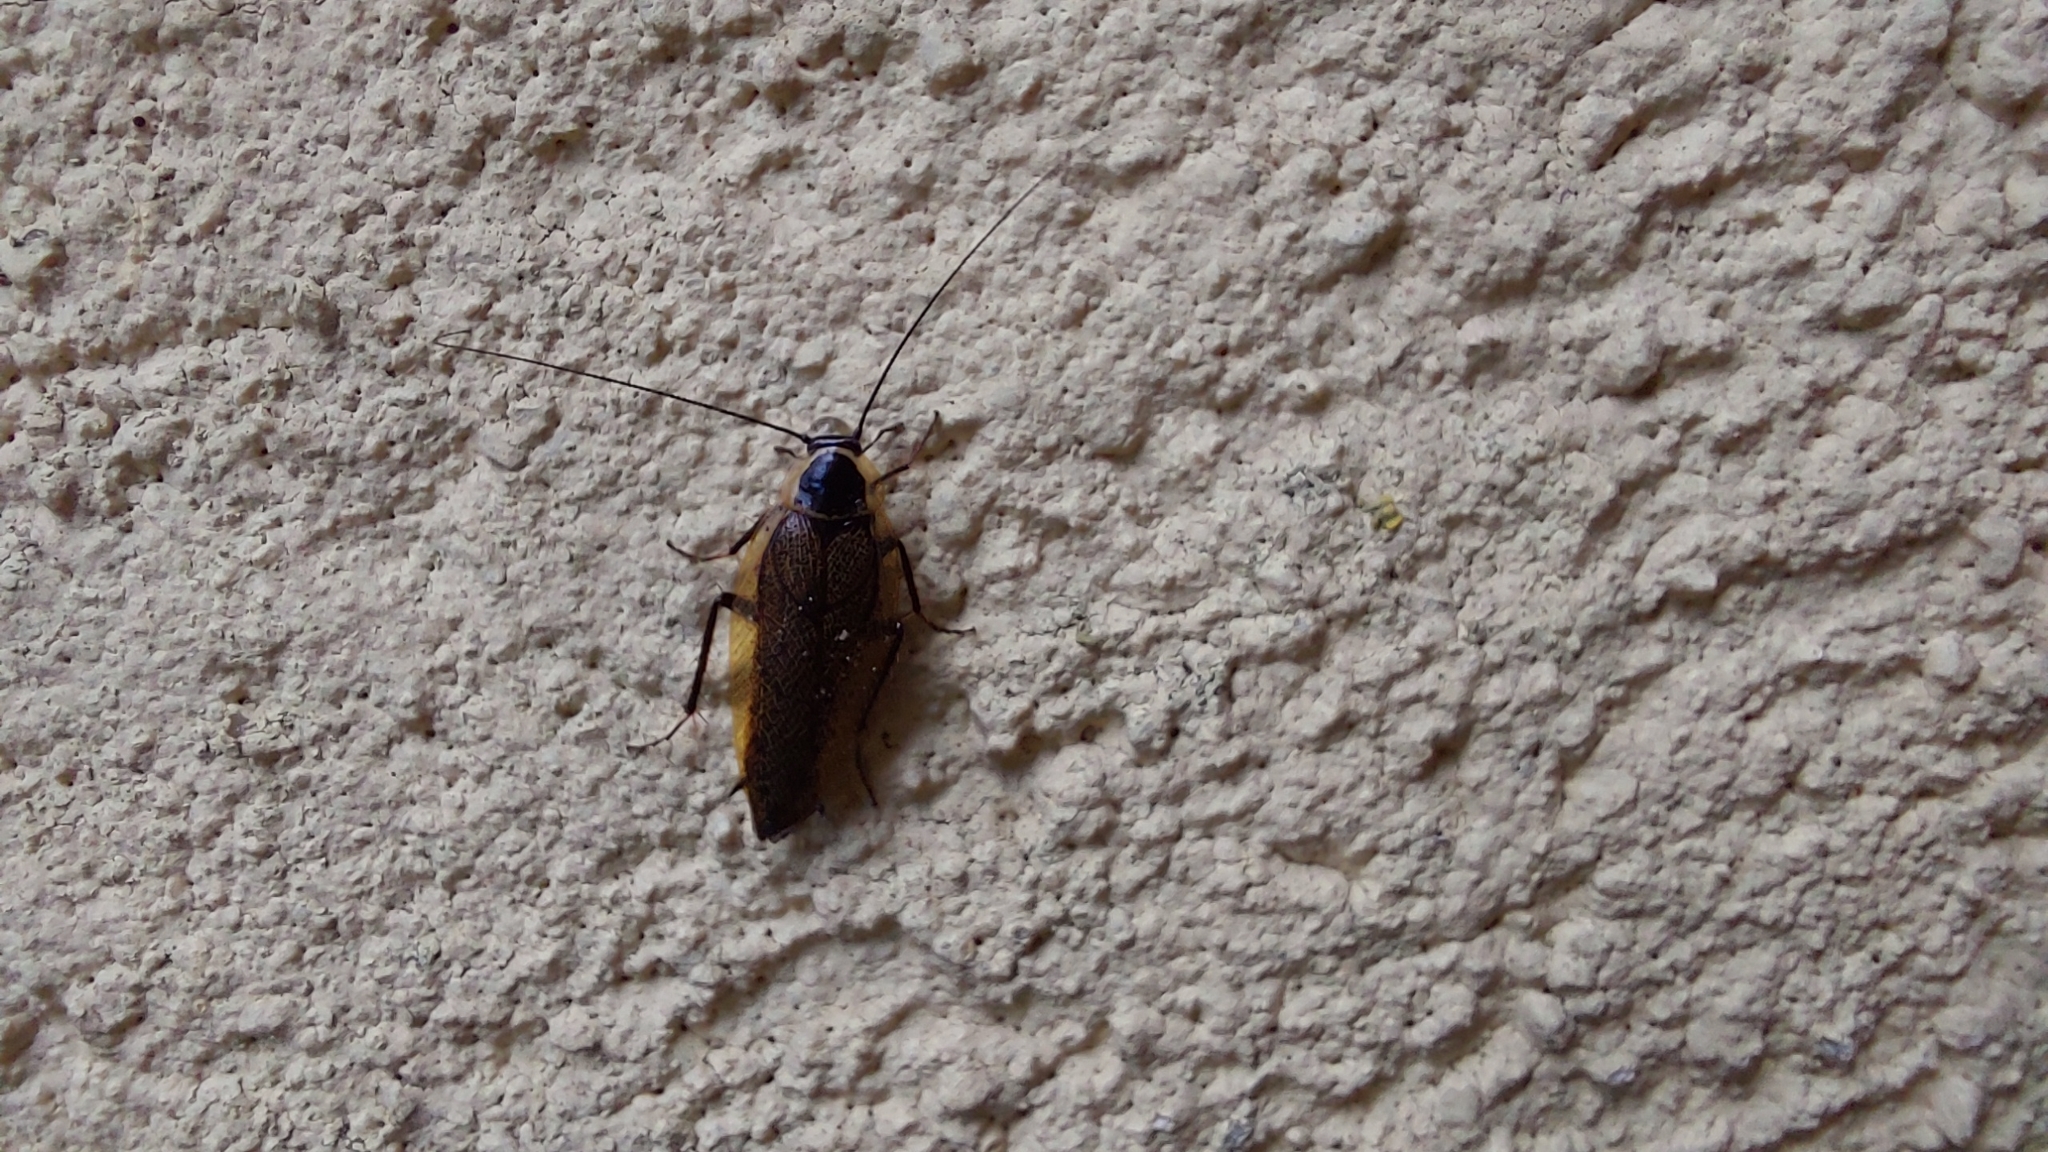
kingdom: Animalia
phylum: Arthropoda
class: Insecta
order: Blattodea
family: Ectobiidae
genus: Ectobius
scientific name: Ectobius sylvestris
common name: Forest cockroach
